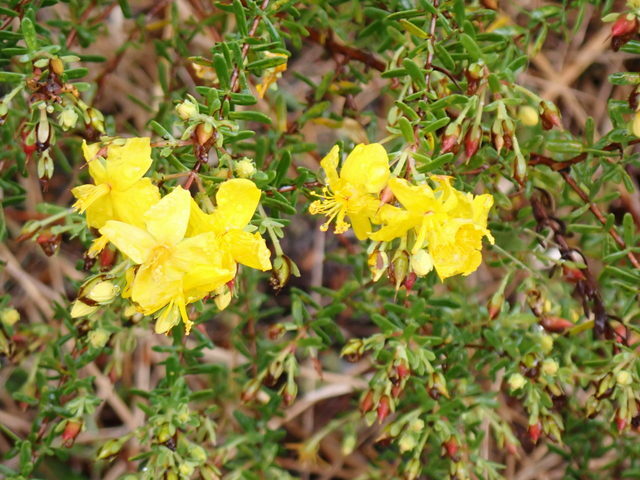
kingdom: Plantae
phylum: Tracheophyta
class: Magnoliopsida
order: Malpighiales
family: Hypericaceae
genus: Hypericum
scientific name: Hypericum microsepalum
